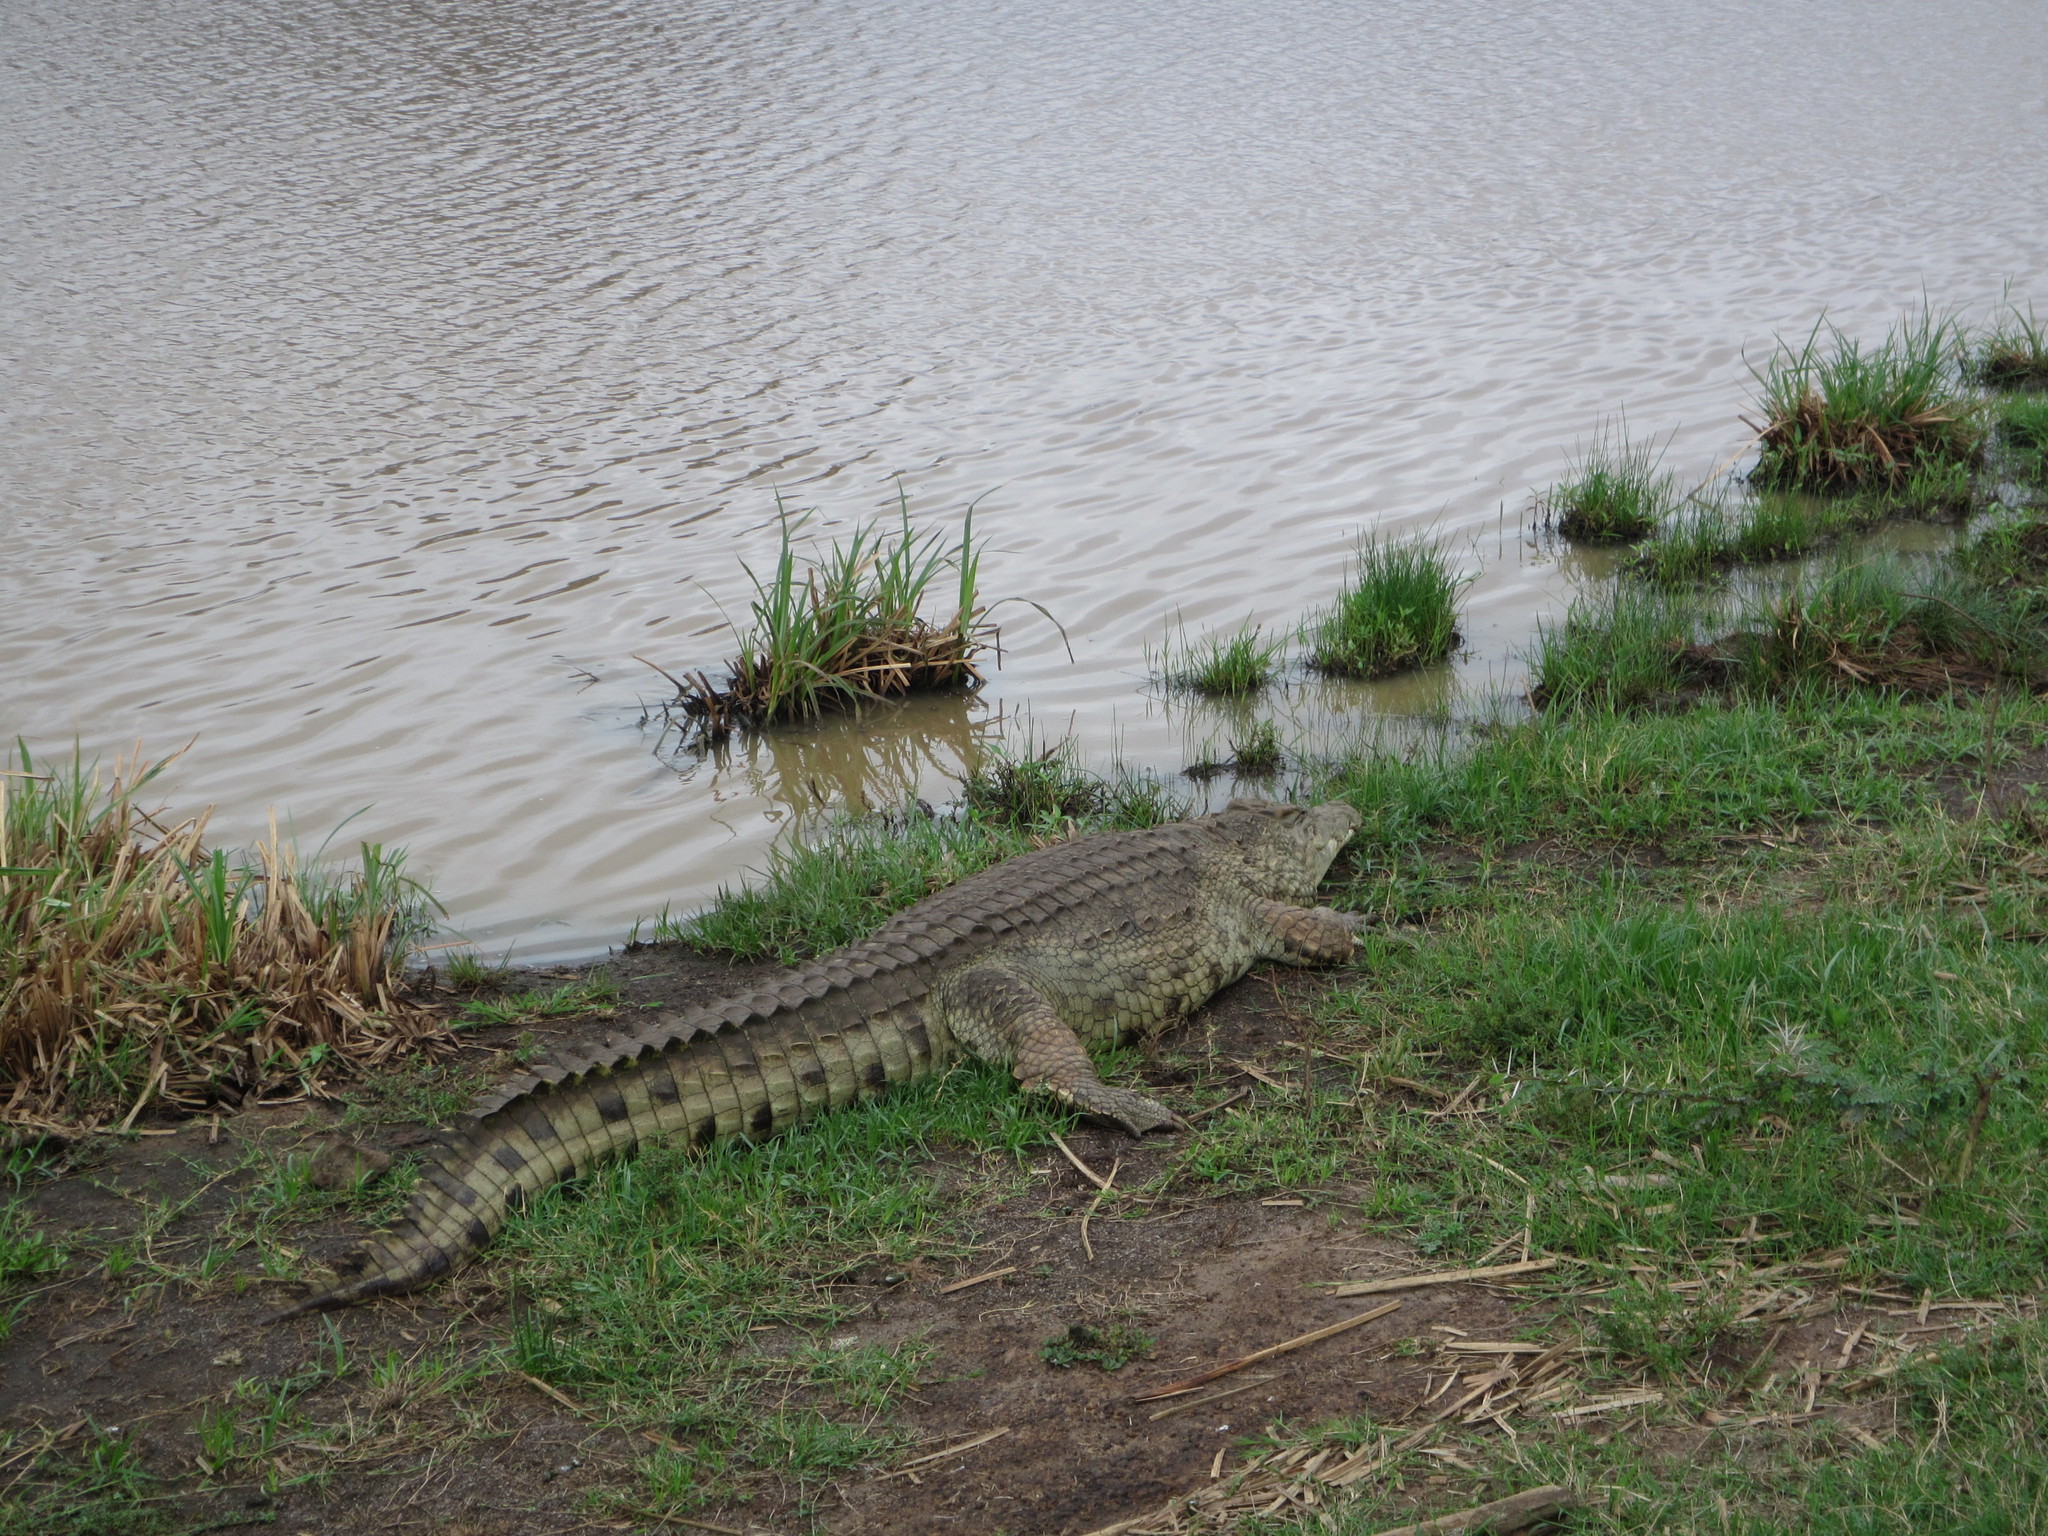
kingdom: Animalia
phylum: Chordata
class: Crocodylia
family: Crocodylidae
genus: Crocodylus
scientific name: Crocodylus niloticus
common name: Nile crocodile
